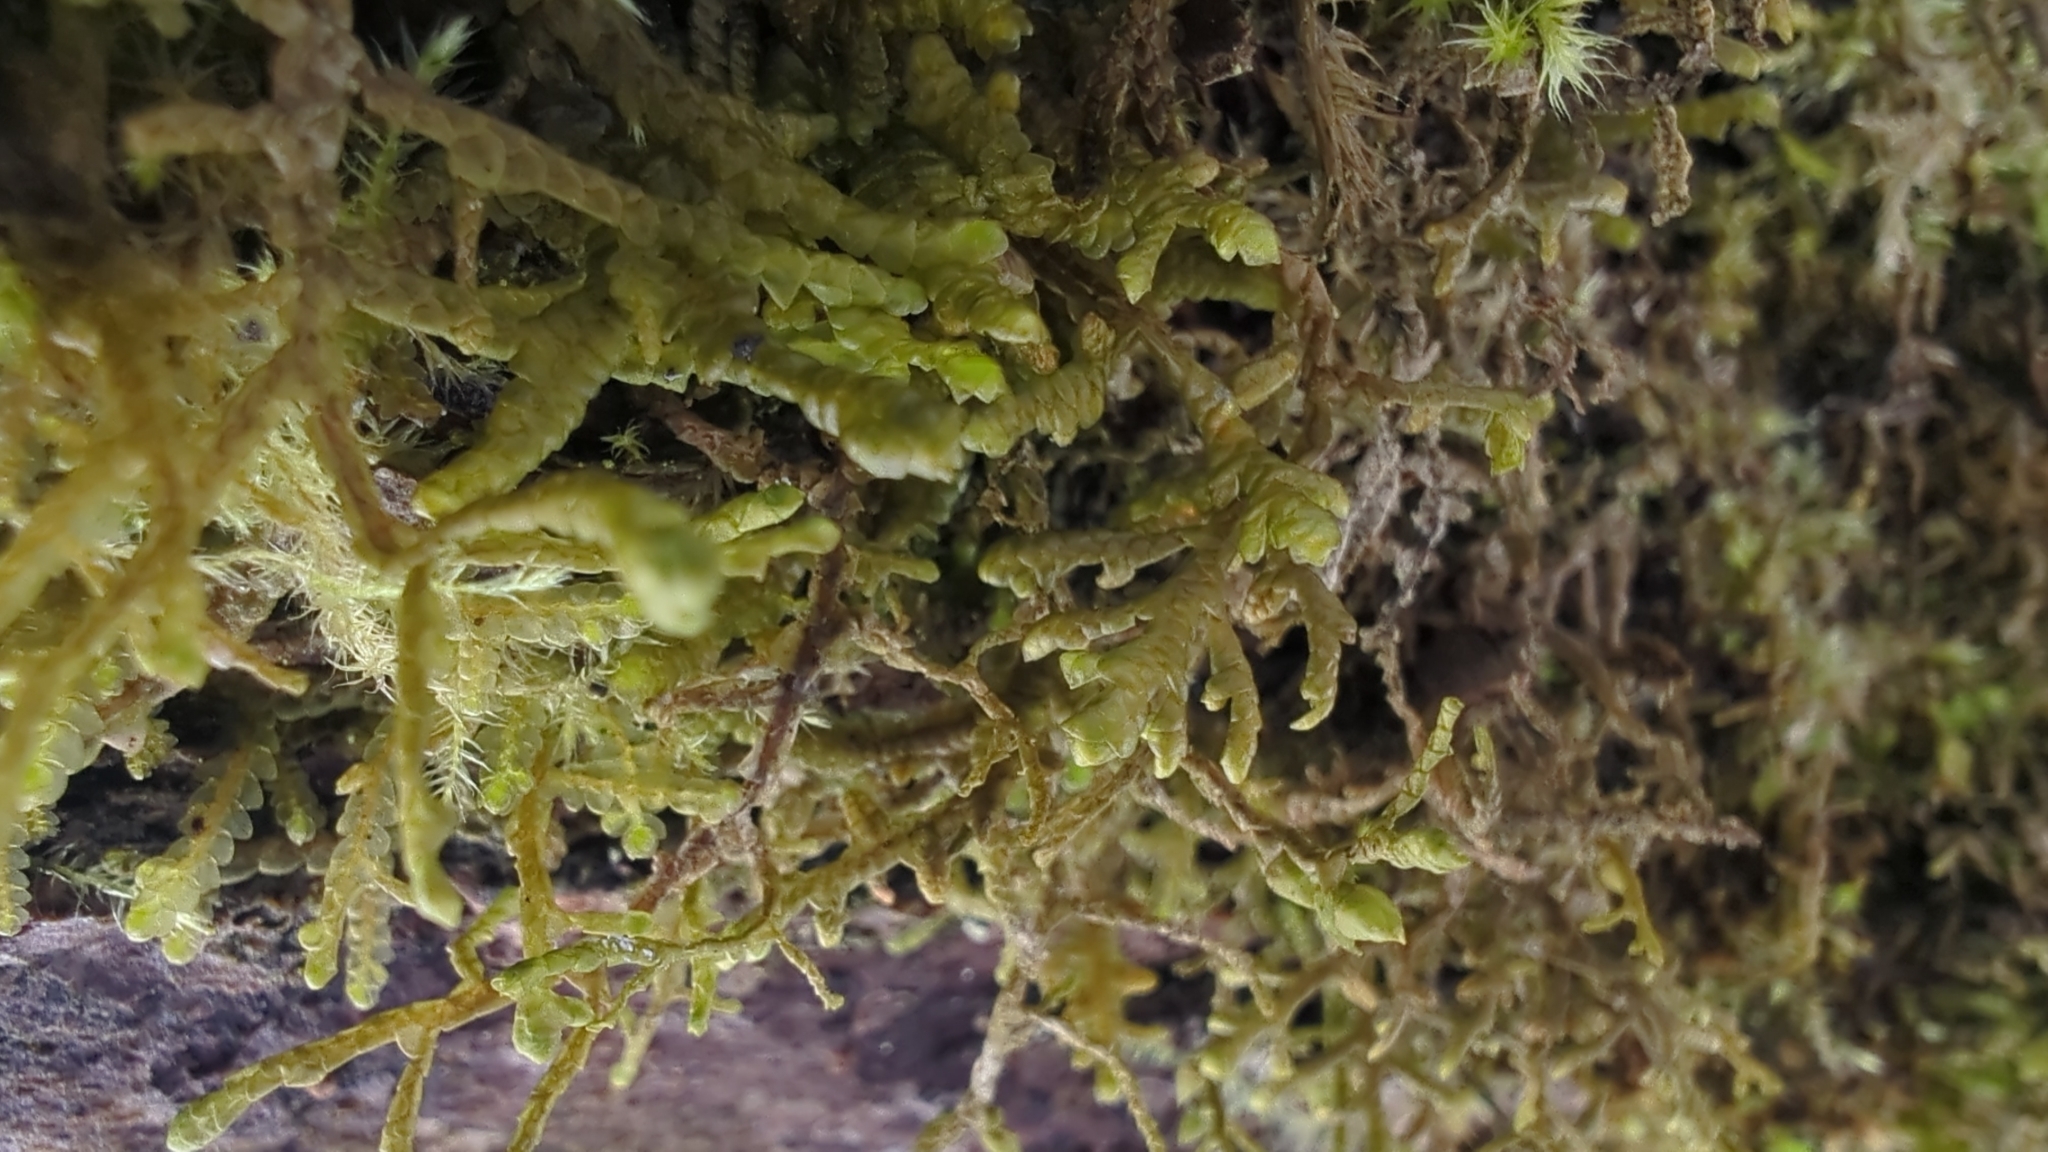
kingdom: Plantae
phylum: Marchantiophyta
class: Jungermanniopsida
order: Porellales
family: Porellaceae
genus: Porella
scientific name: Porella navicularis
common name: Tree ruffle liverwort
